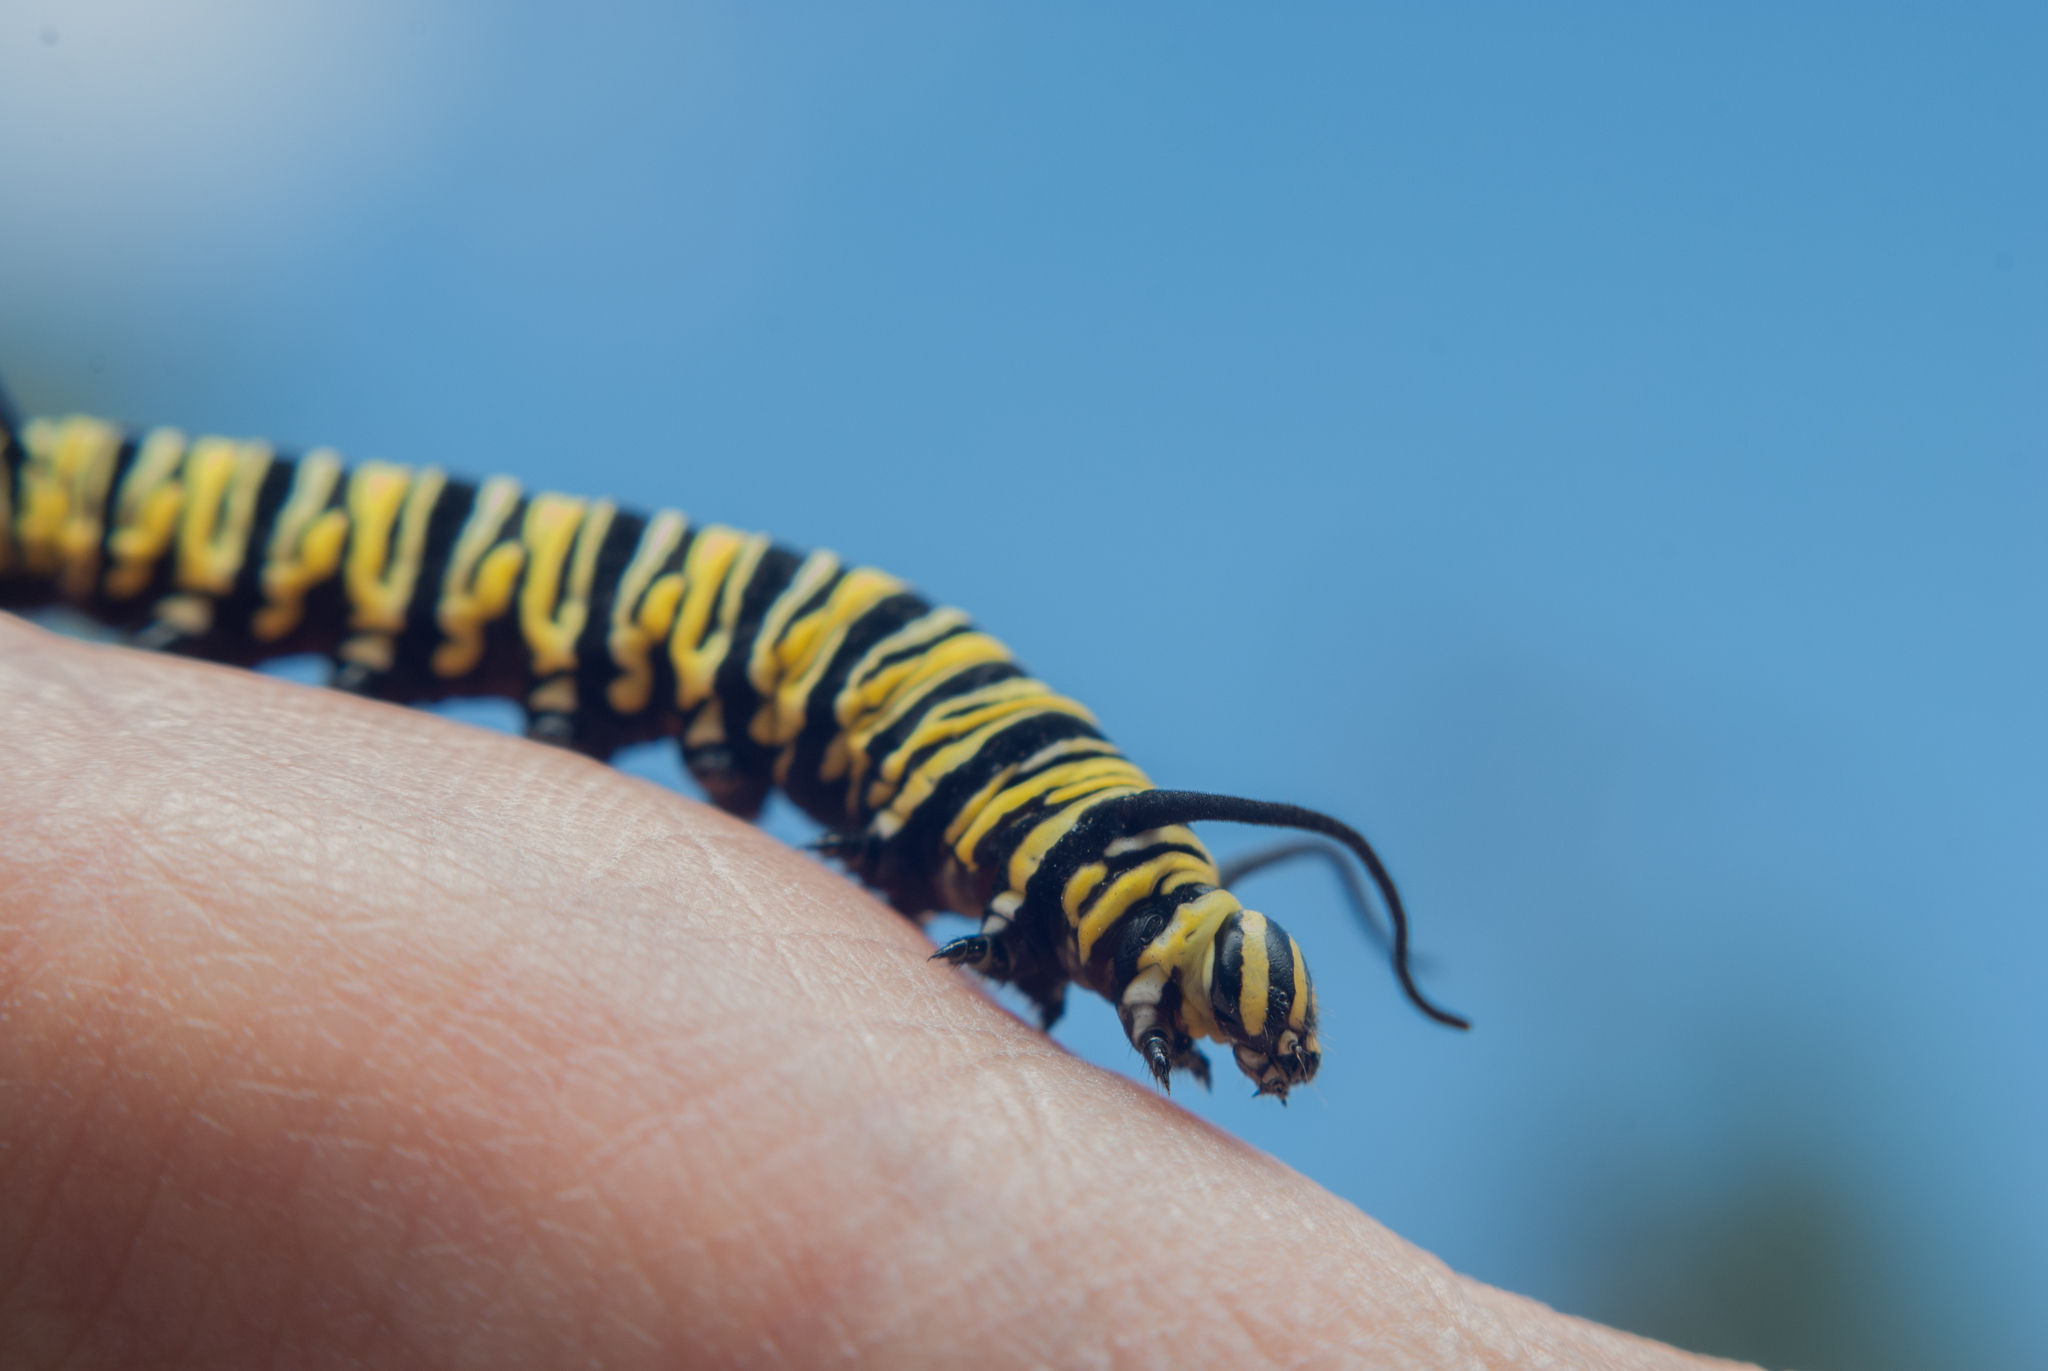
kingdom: Animalia
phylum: Arthropoda
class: Insecta
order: Lepidoptera
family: Nymphalidae
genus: Danaus
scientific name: Danaus plexippus
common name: Monarch
